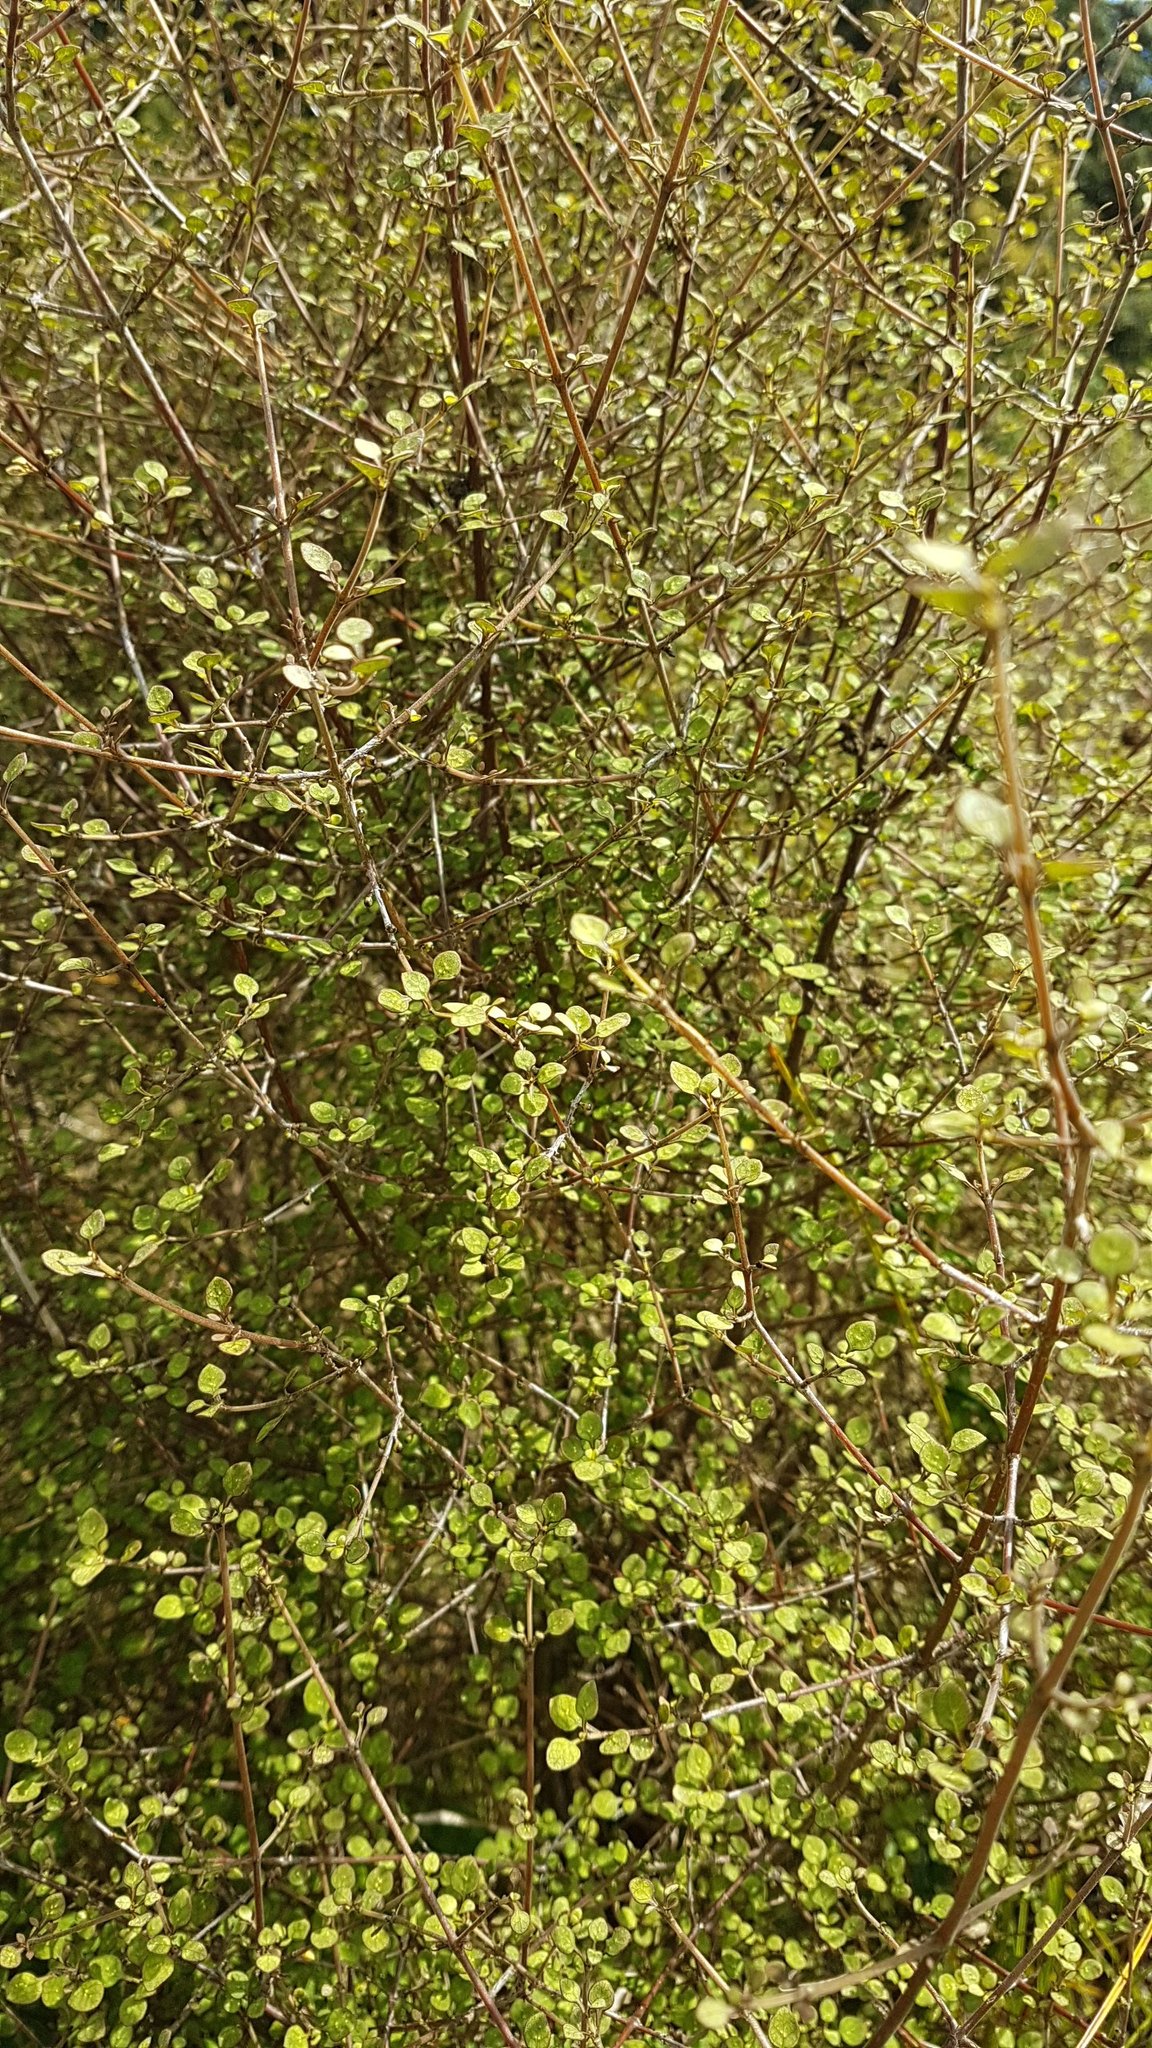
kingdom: Plantae
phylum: Tracheophyta
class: Magnoliopsida
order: Gentianales
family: Rubiaceae
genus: Coprosma
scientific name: Coprosma tenuicaulis
